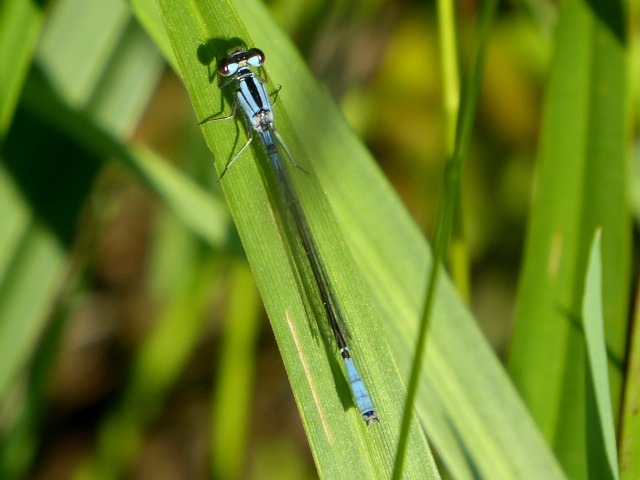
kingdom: Animalia
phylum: Arthropoda
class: Insecta
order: Odonata
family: Coenagrionidae
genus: Enallagma
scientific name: Enallagma aspersum
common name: Azure bluet
